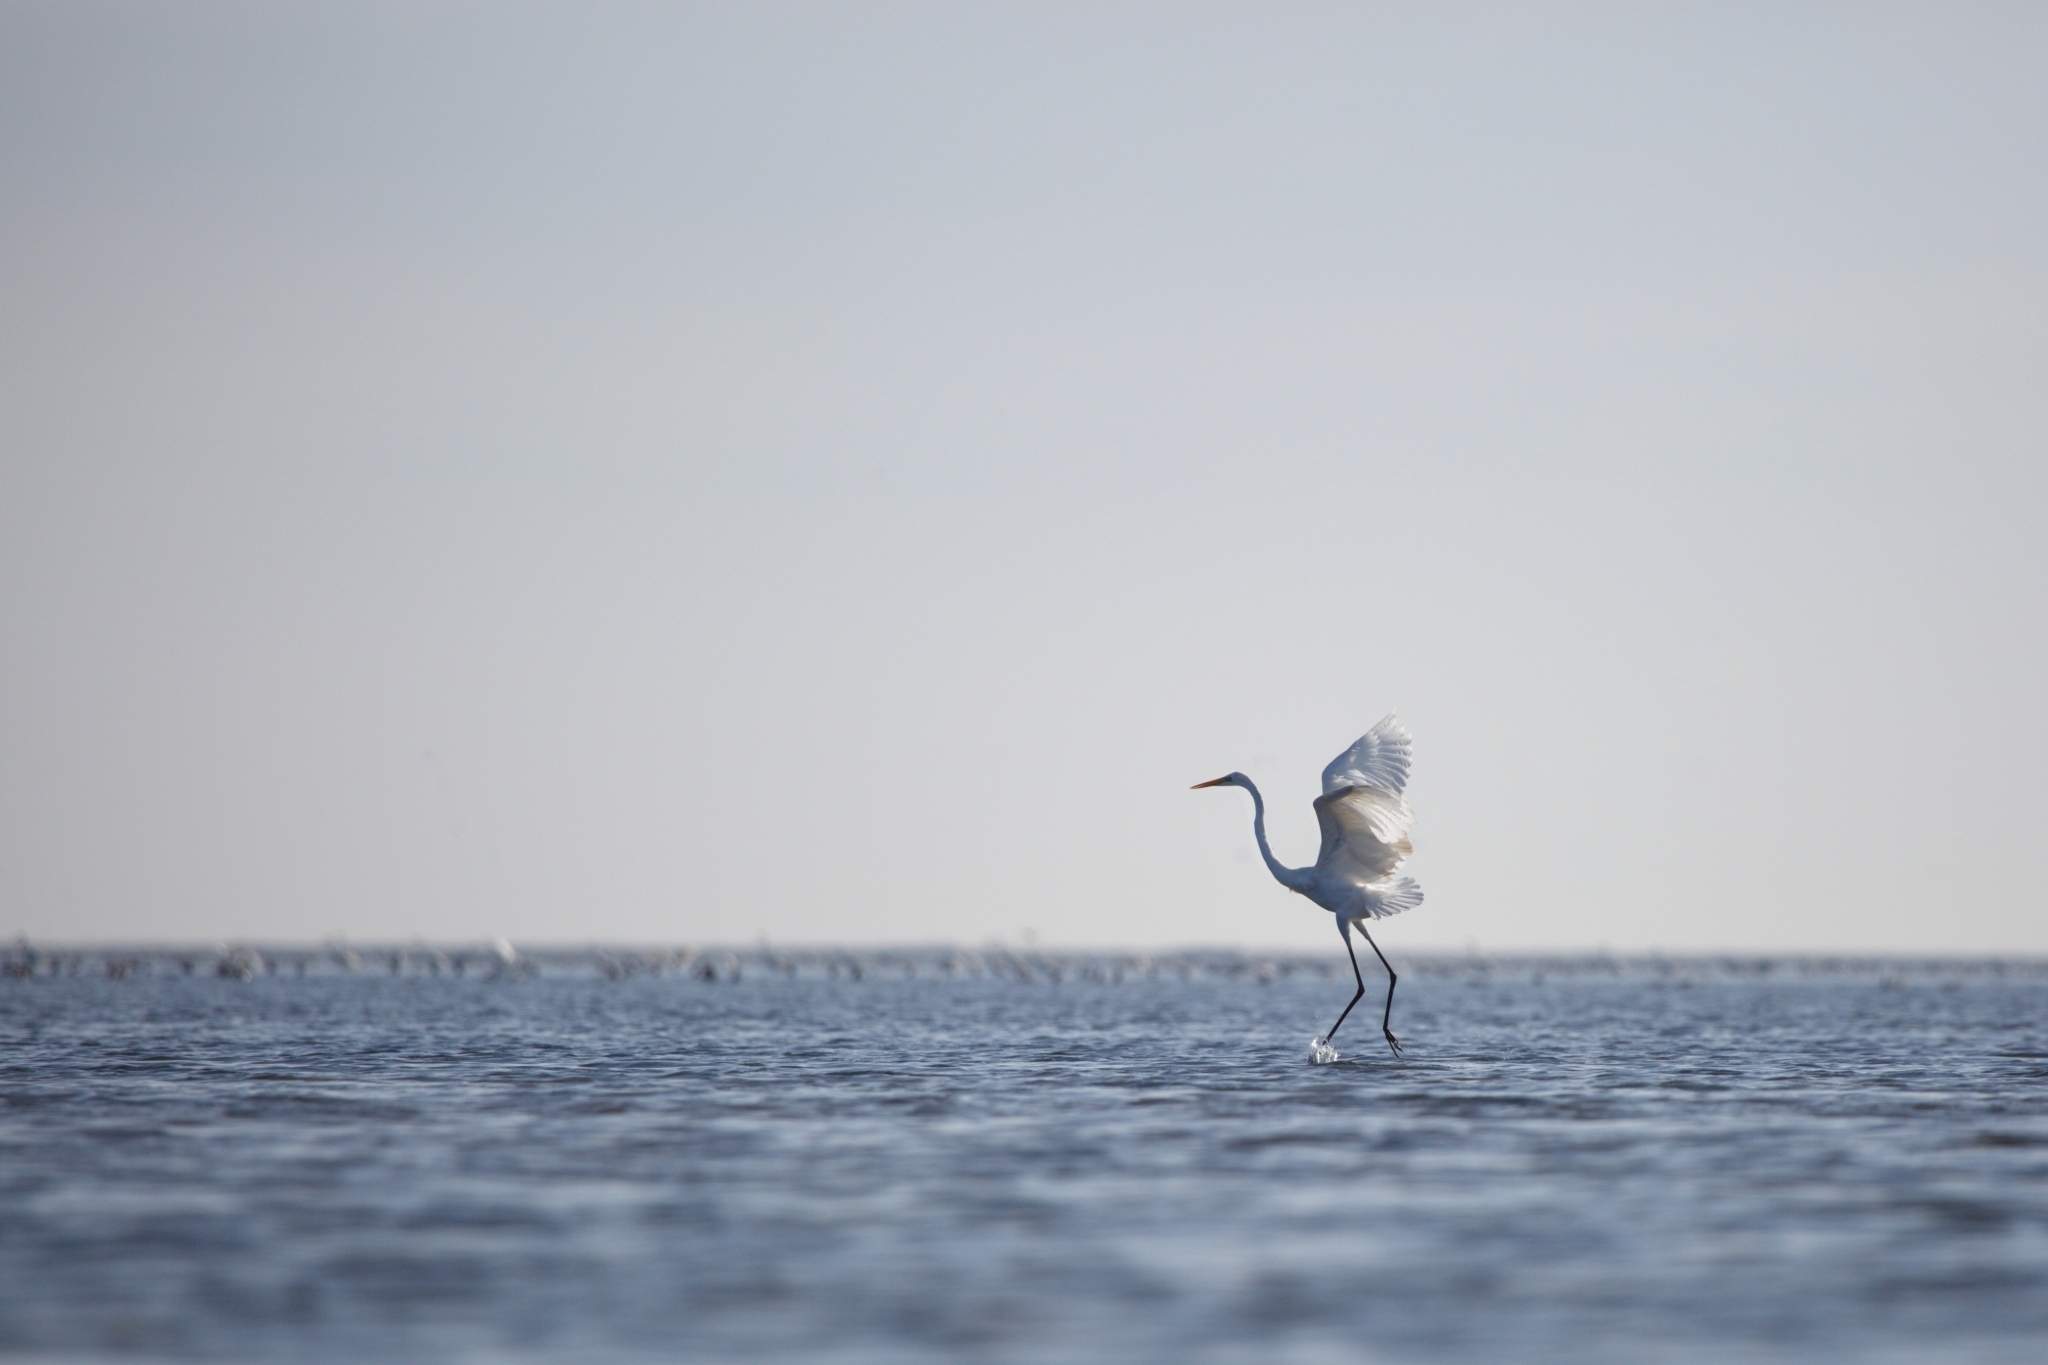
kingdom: Animalia
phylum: Chordata
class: Aves
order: Pelecaniformes
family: Ardeidae
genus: Ardea
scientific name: Ardea alba
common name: Great egret
